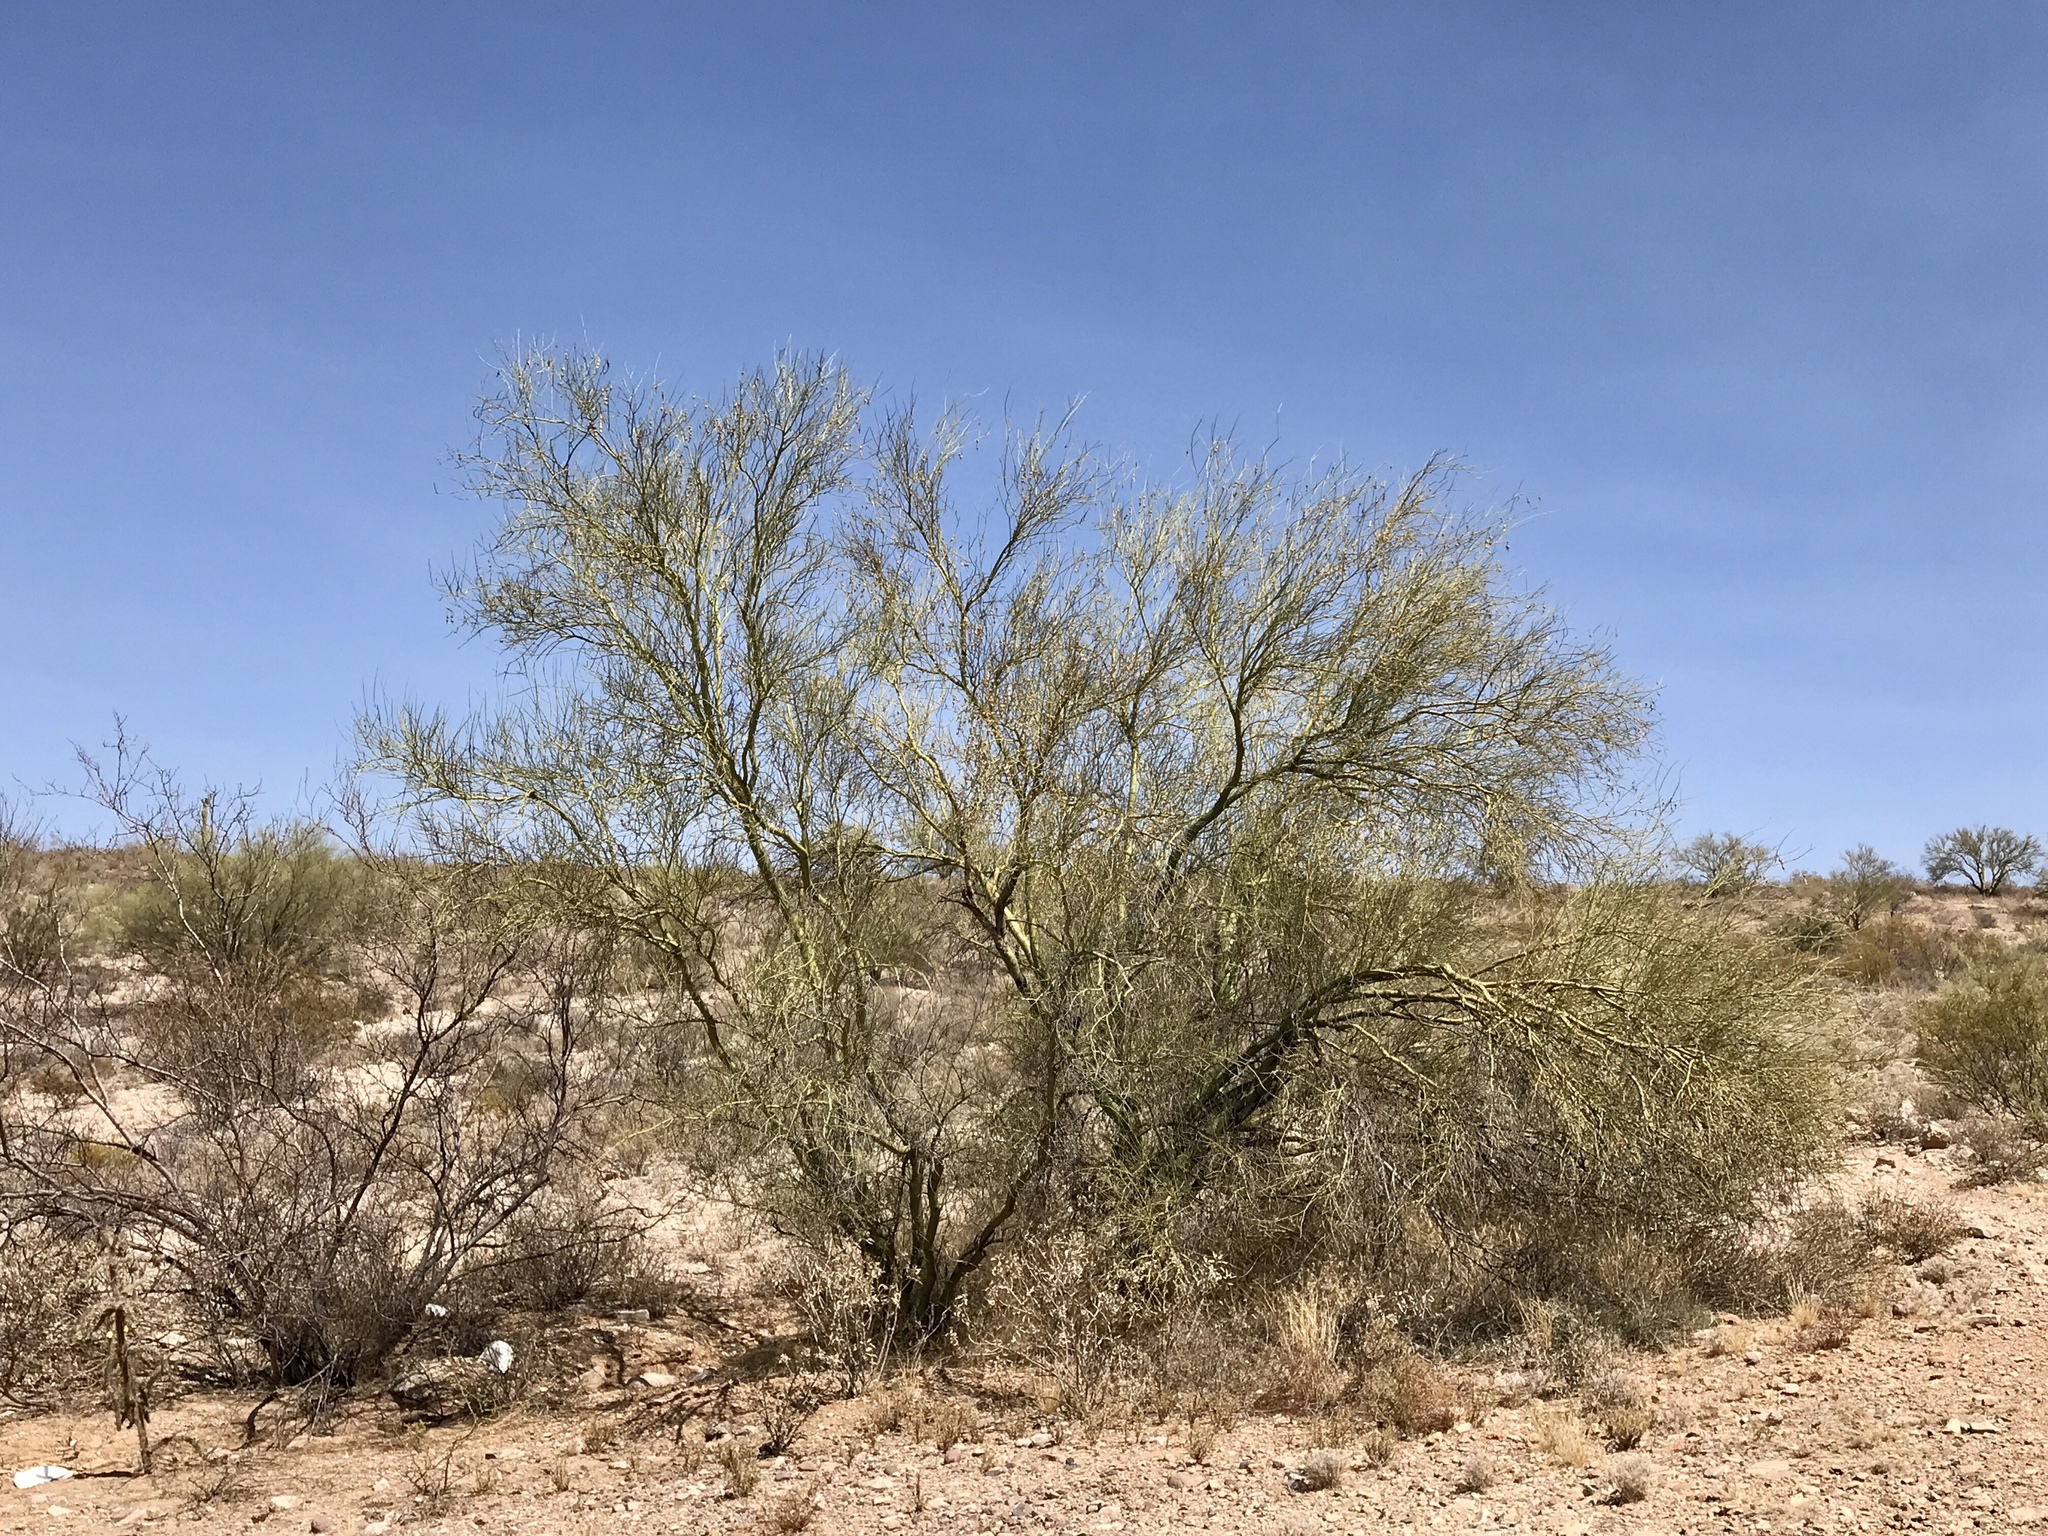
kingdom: Plantae
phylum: Tracheophyta
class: Magnoliopsida
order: Fabales
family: Fabaceae
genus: Parkinsonia
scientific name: Parkinsonia florida
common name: Blue paloverde
